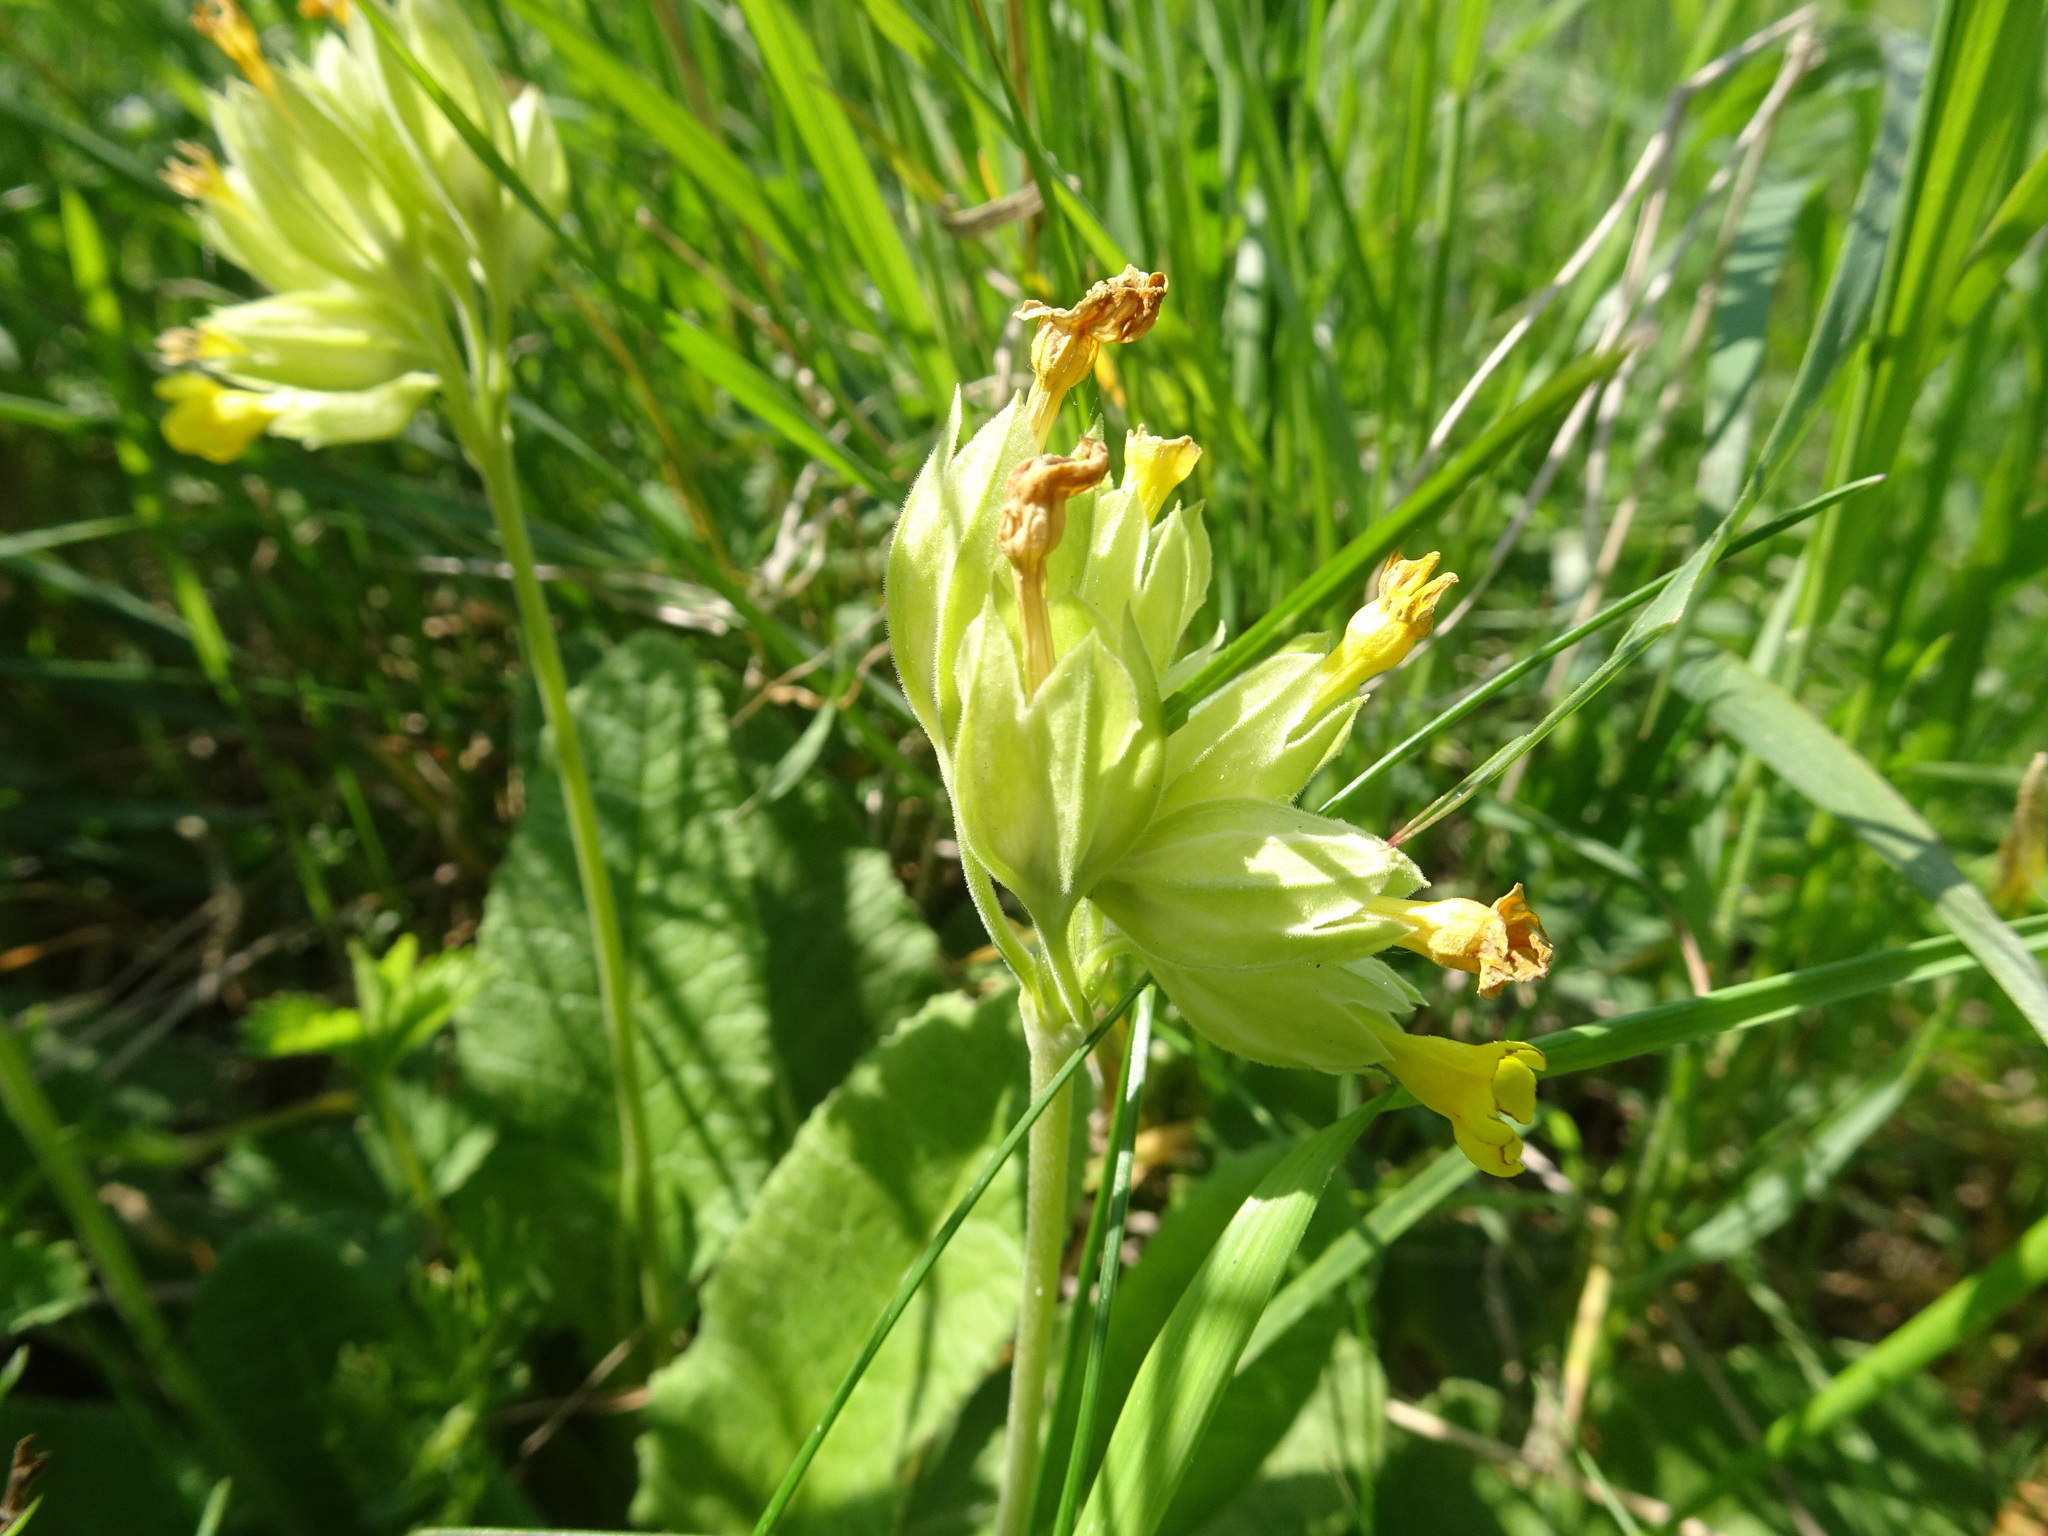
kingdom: Plantae
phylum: Tracheophyta
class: Magnoliopsida
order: Ericales
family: Primulaceae
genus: Primula
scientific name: Primula veris
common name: Cowslip
